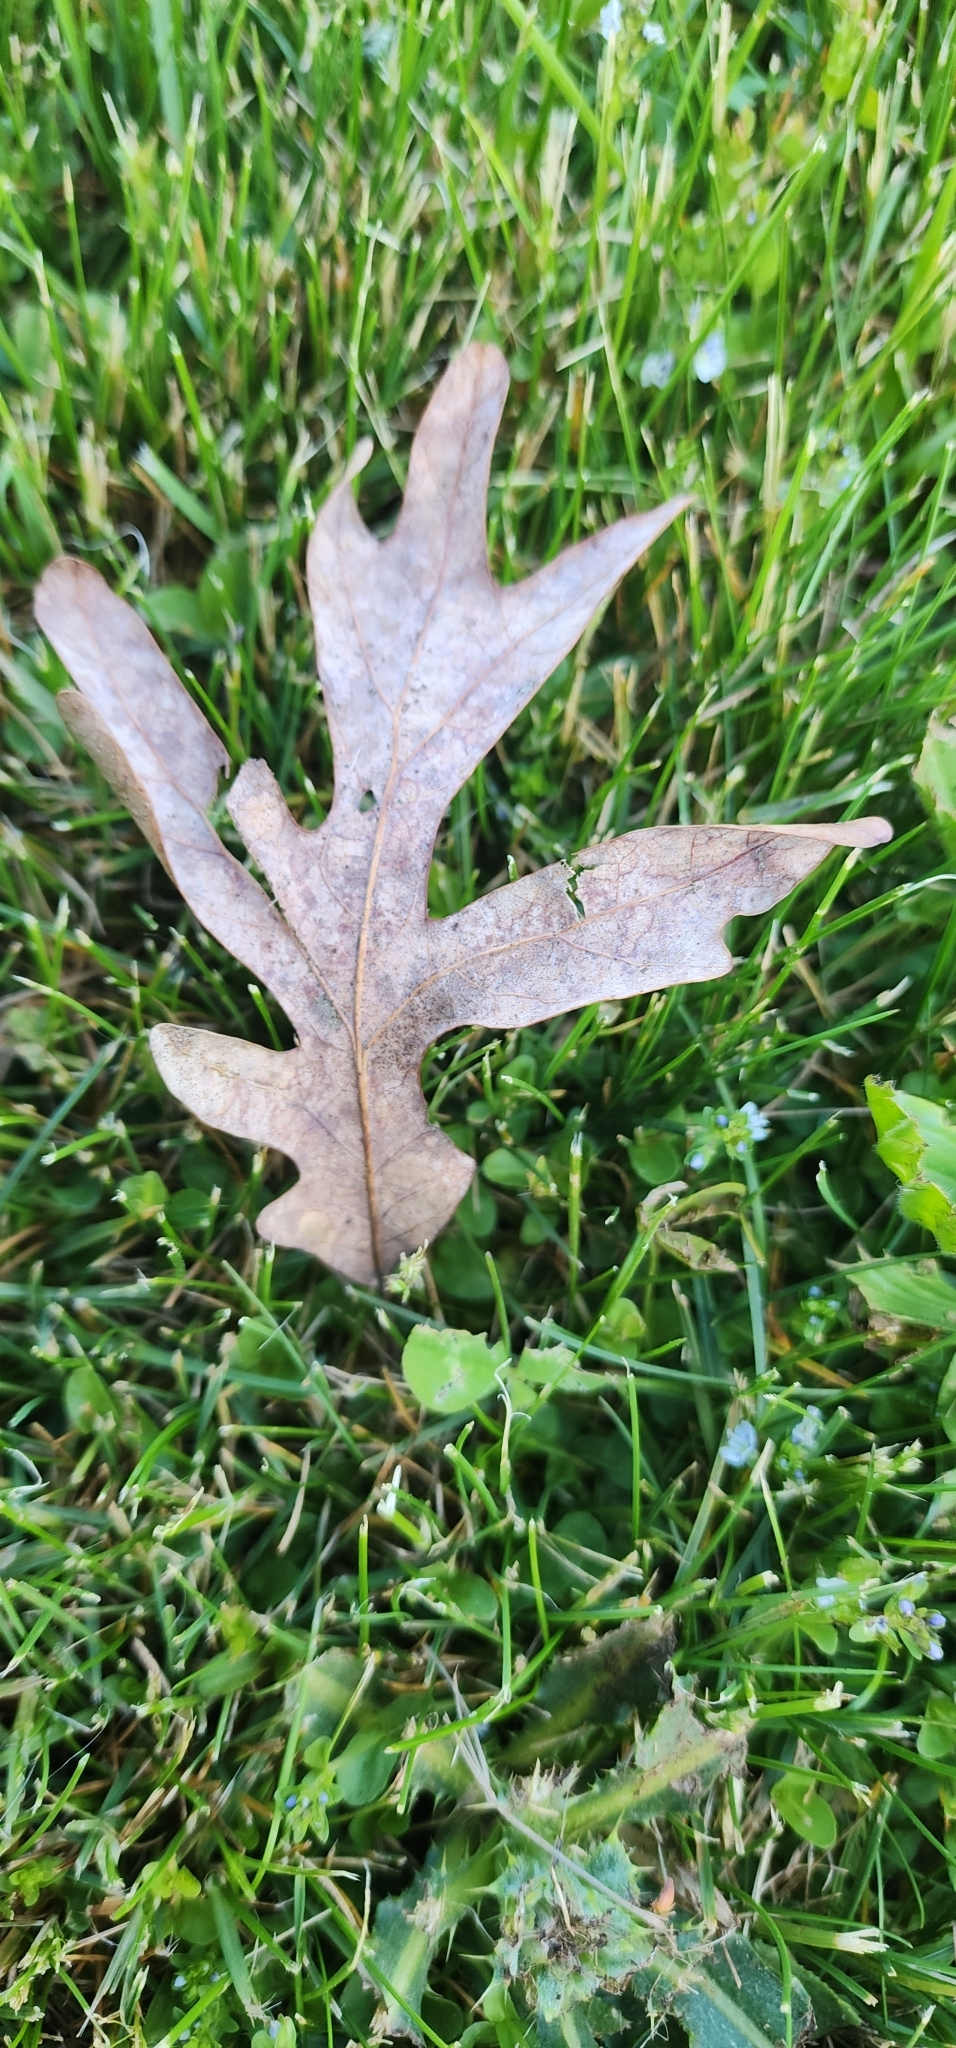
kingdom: Plantae
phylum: Tracheophyta
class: Magnoliopsida
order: Fagales
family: Fagaceae
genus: Quercus
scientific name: Quercus alba
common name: White oak
